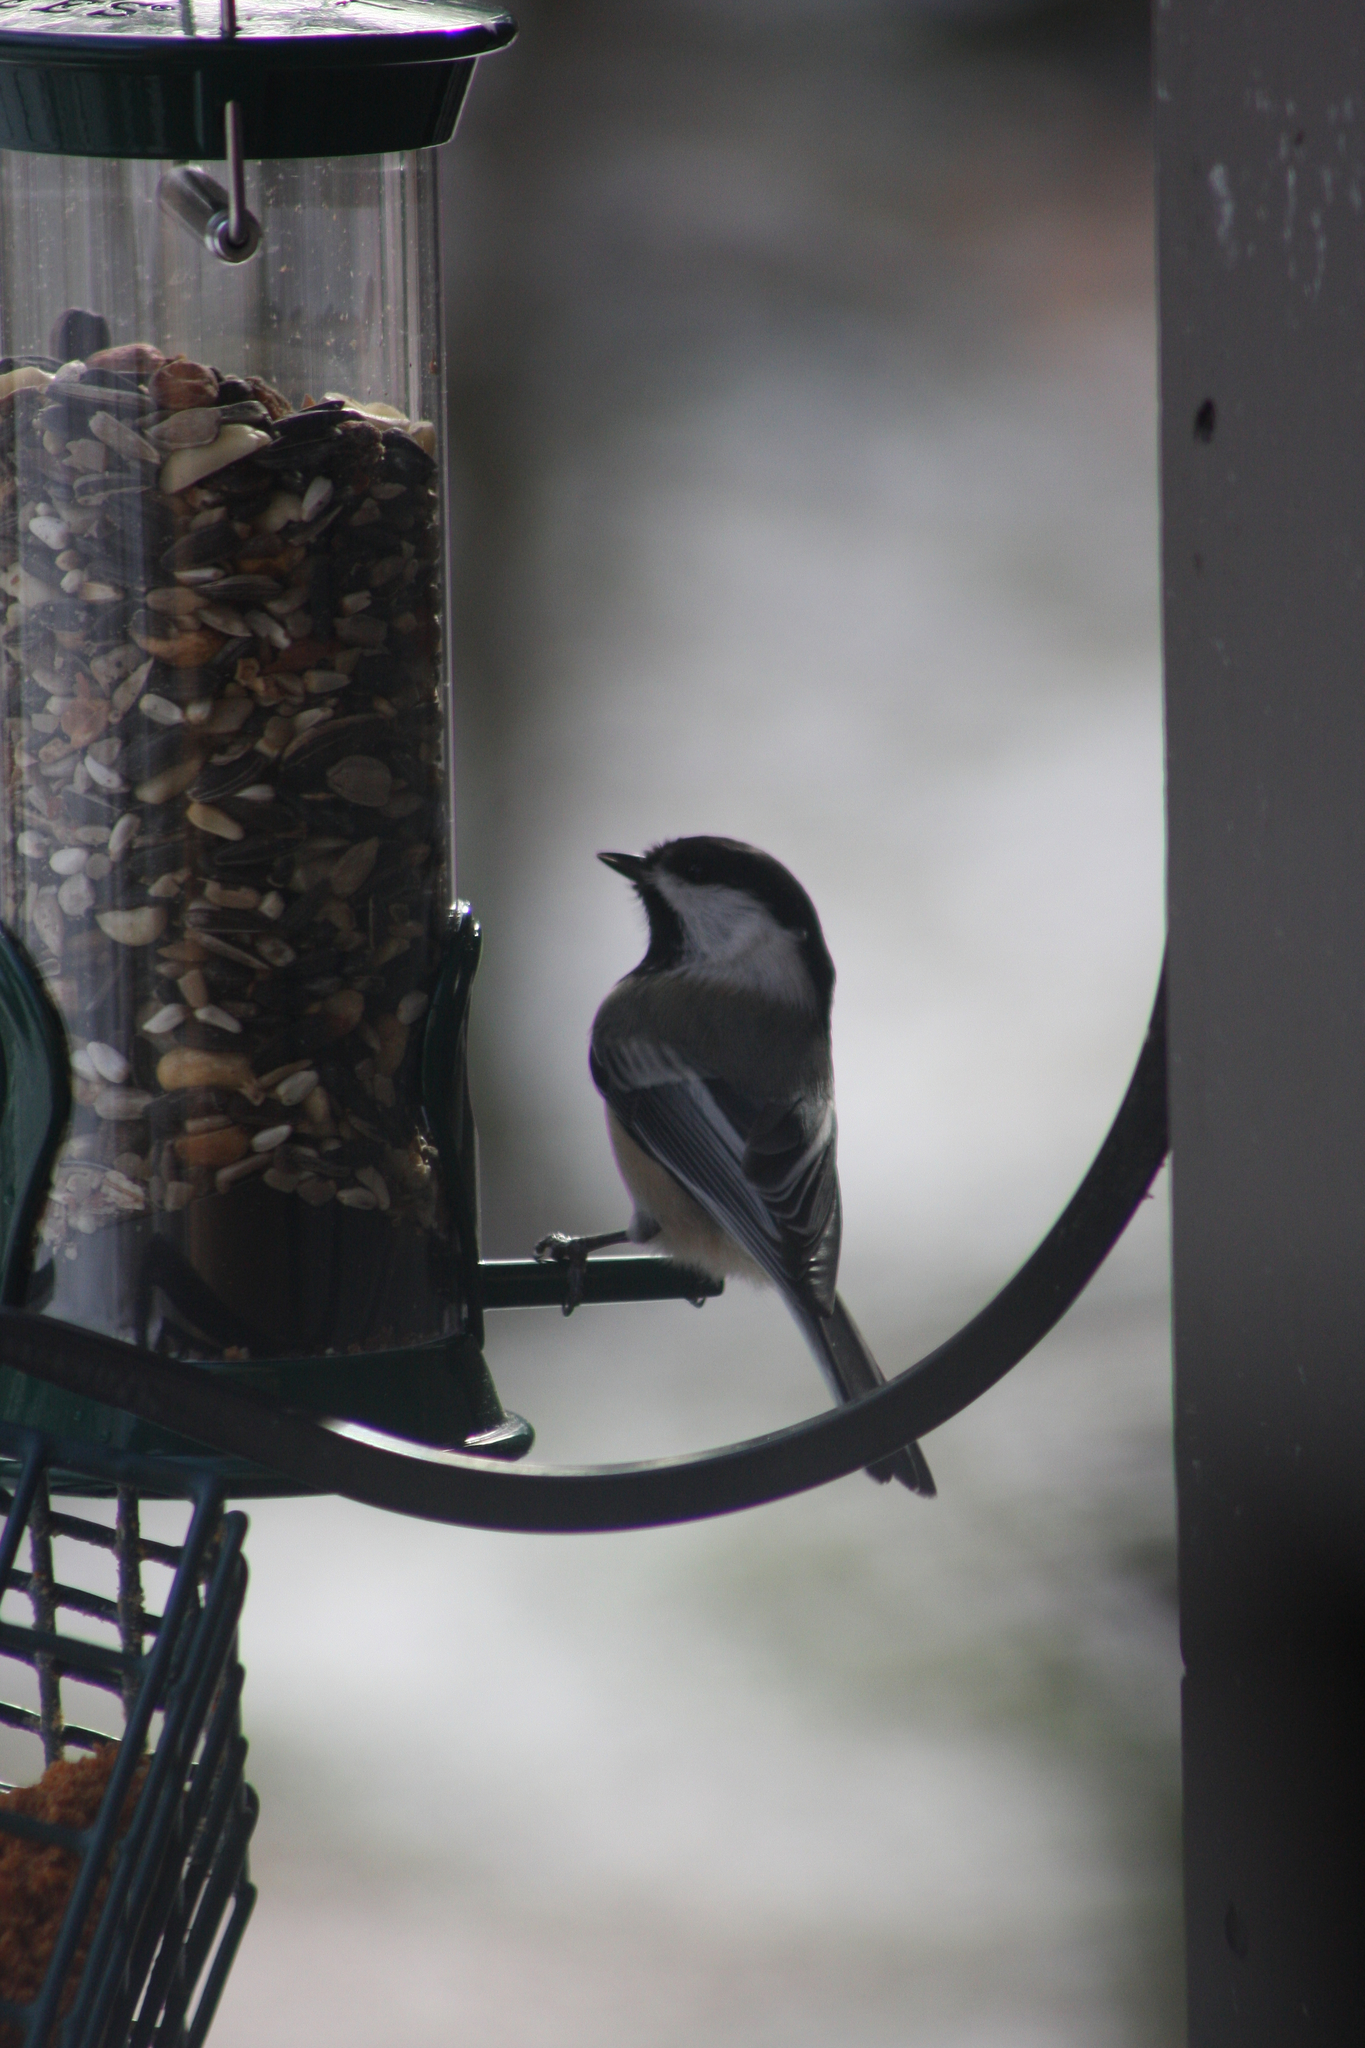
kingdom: Animalia
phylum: Chordata
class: Aves
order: Passeriformes
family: Paridae
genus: Poecile
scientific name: Poecile atricapillus
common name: Black-capped chickadee
